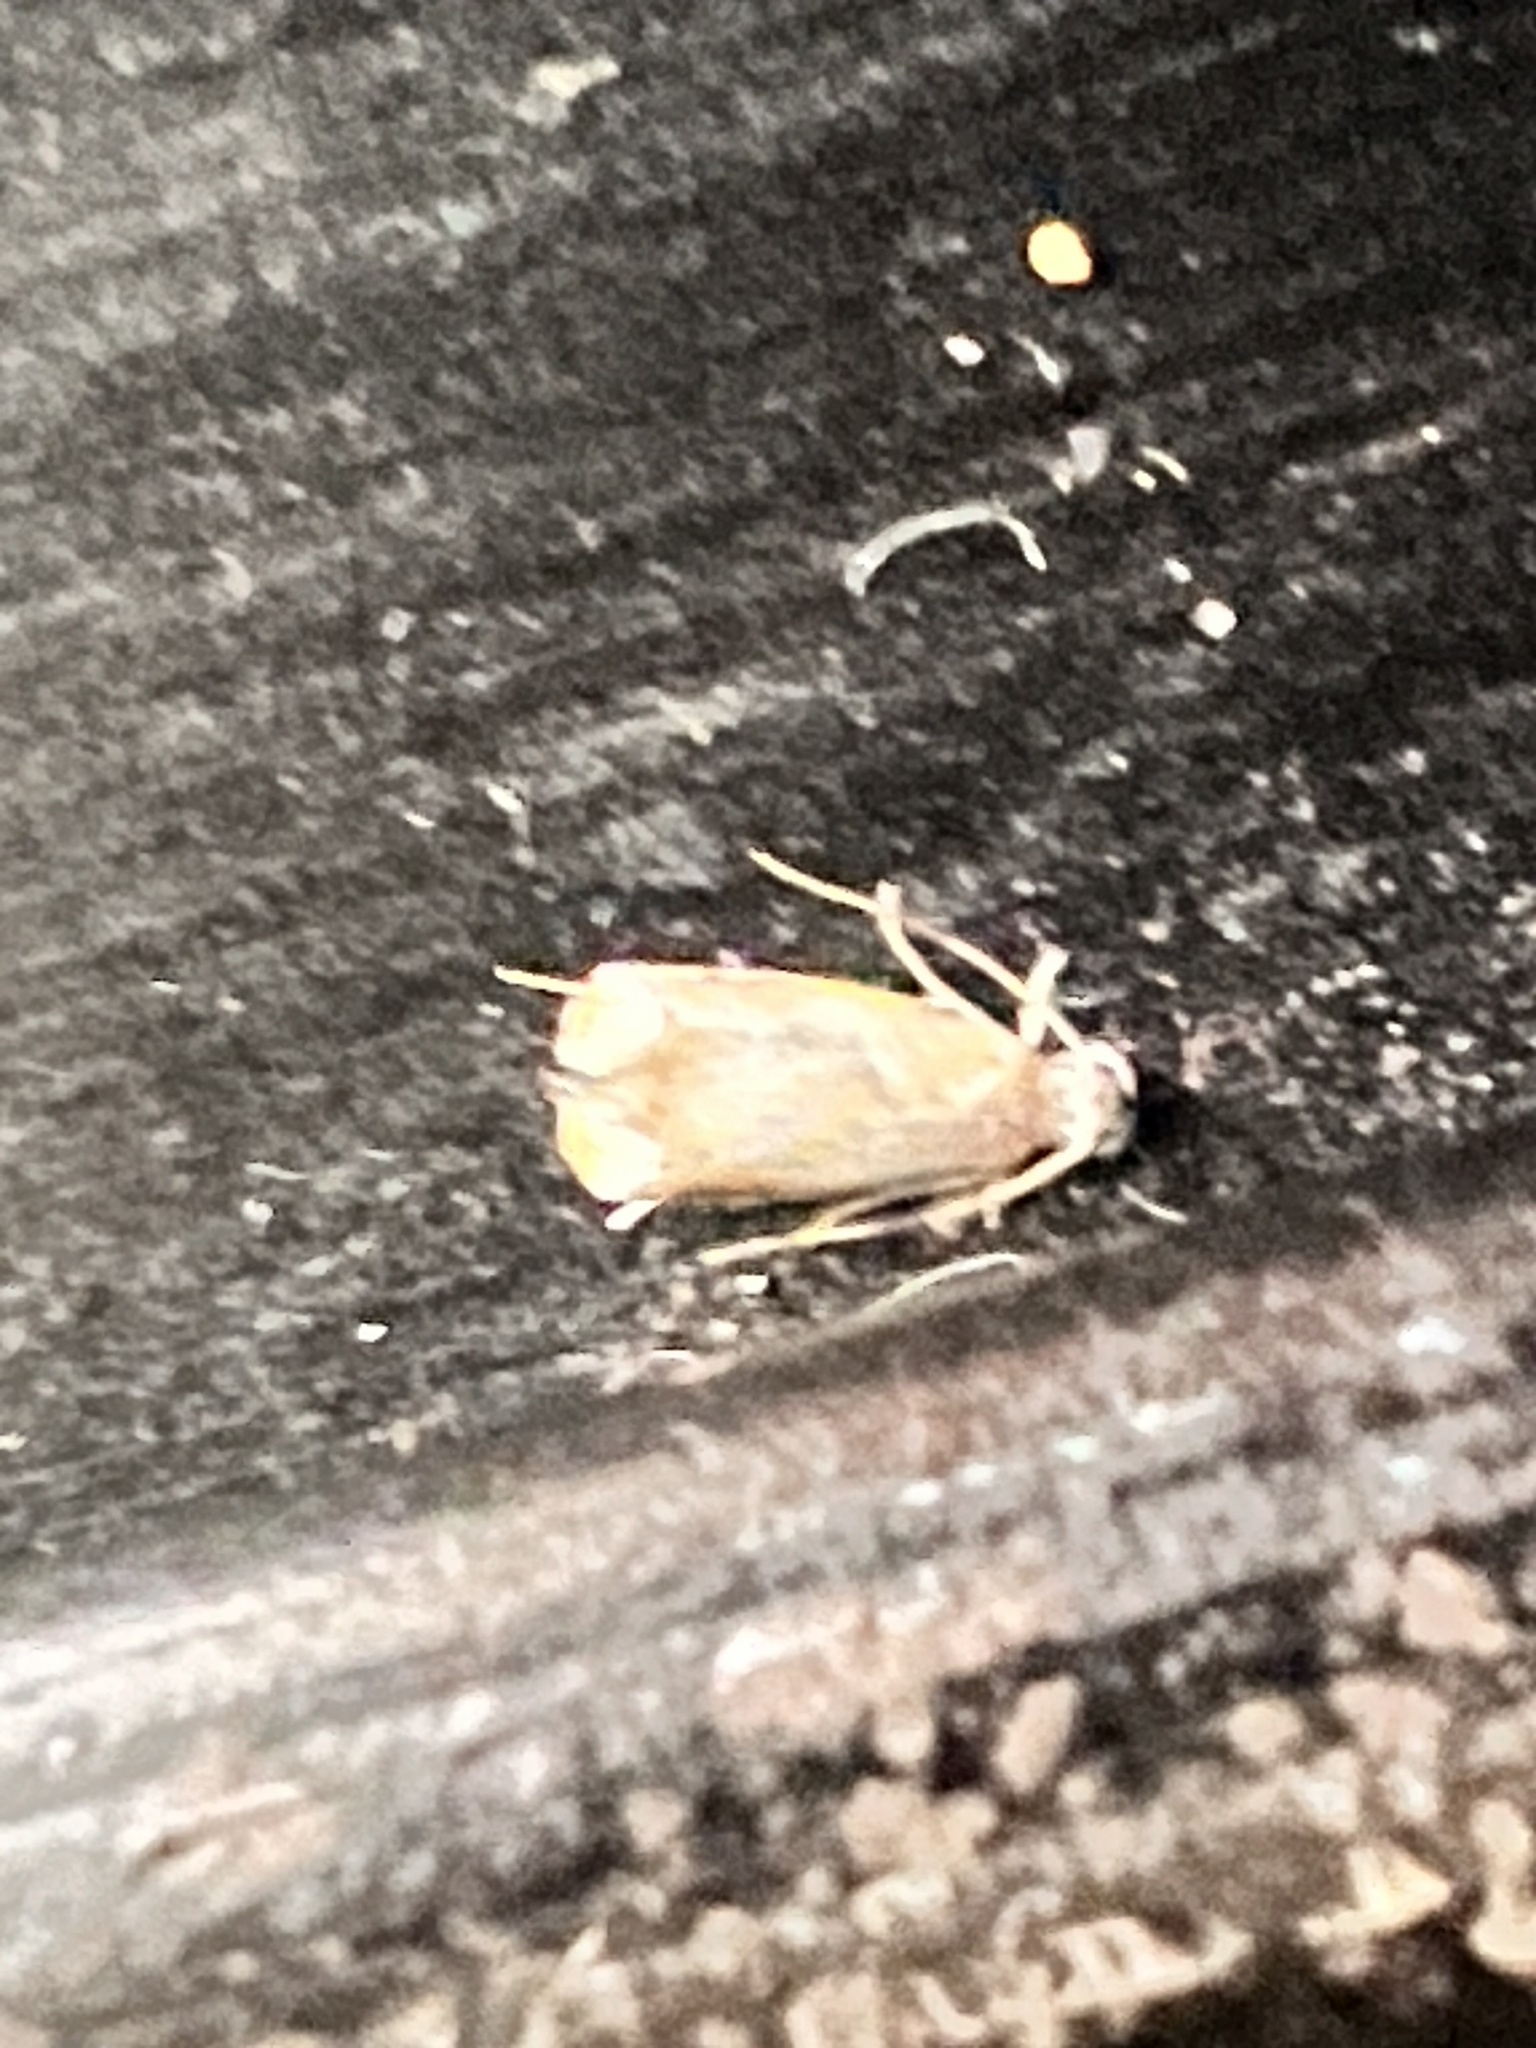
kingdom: Animalia
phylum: Arthropoda
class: Insecta
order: Lepidoptera
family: Dryadaulidae
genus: Dryadaula
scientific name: Dryadaula terpsichorella
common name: Dancing moth
